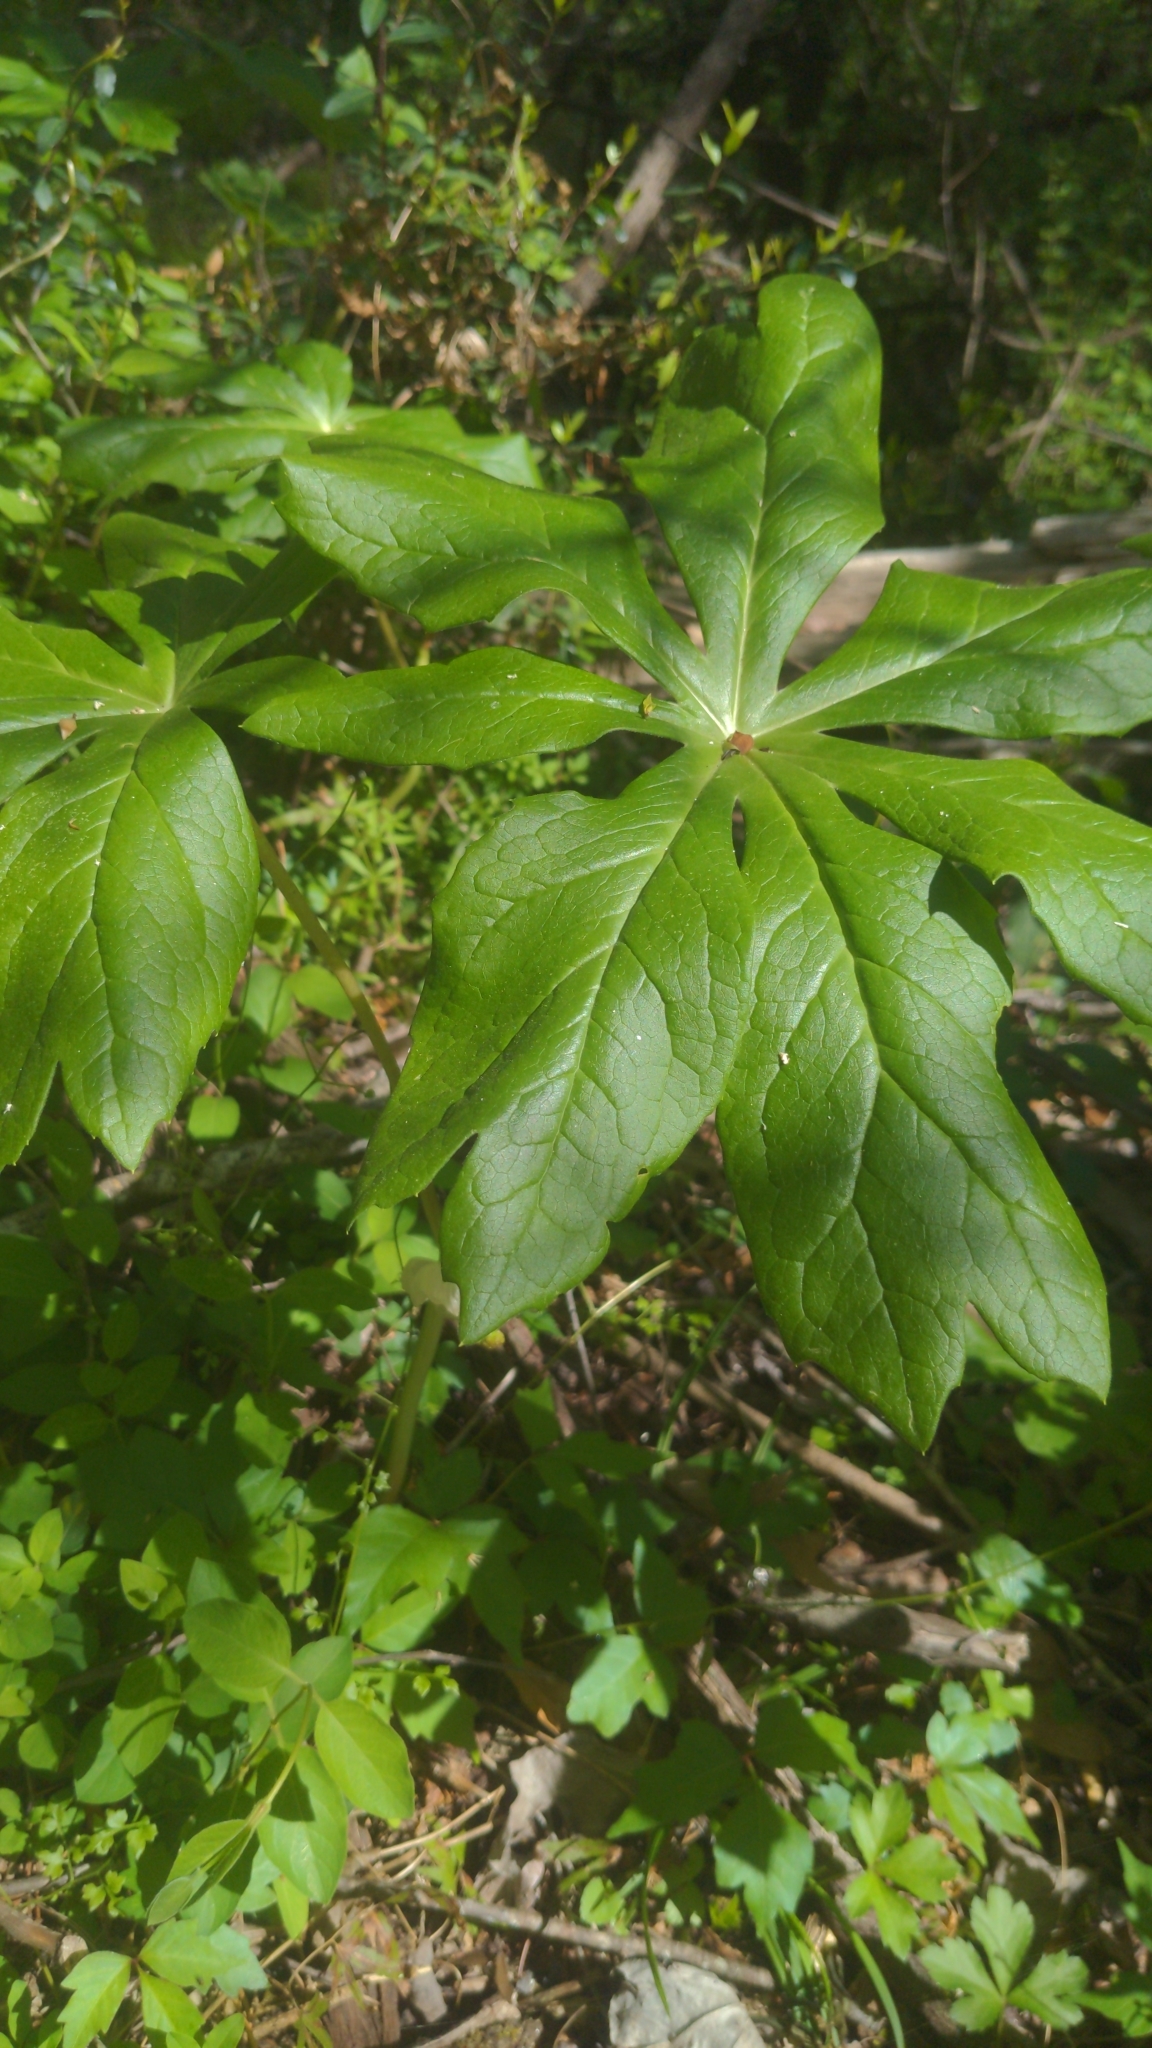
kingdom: Plantae
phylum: Tracheophyta
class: Magnoliopsida
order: Ranunculales
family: Berberidaceae
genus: Podophyllum
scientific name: Podophyllum peltatum
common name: Wild mandrake
